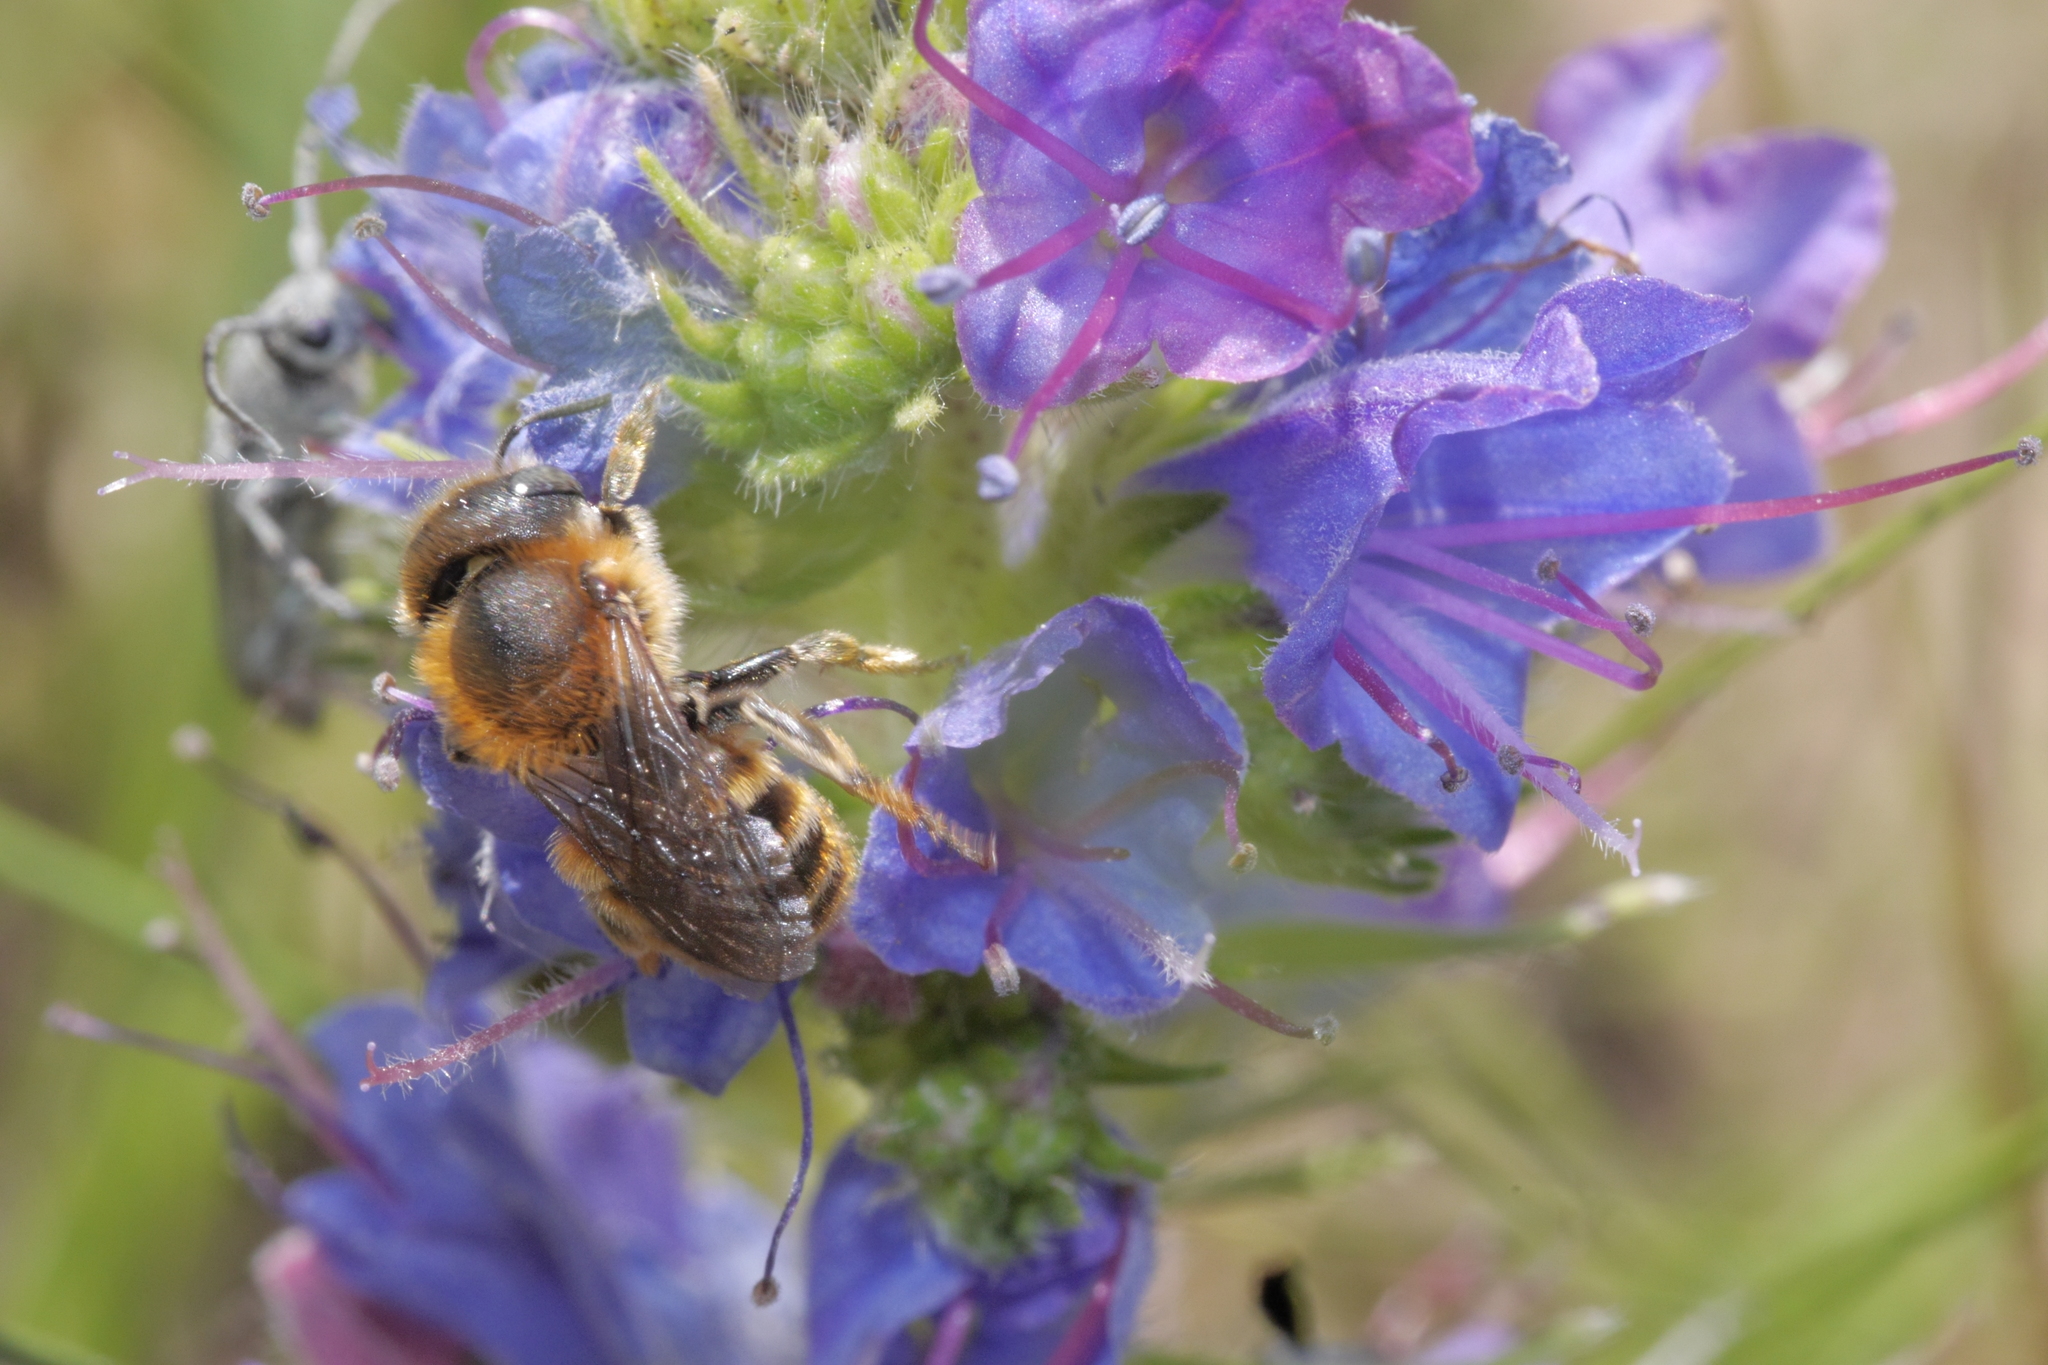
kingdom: Animalia
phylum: Arthropoda
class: Insecta
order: Hymenoptera
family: Megachilidae
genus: Osmia
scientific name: Osmia aurulenta
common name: Gold-fringed mason bee
